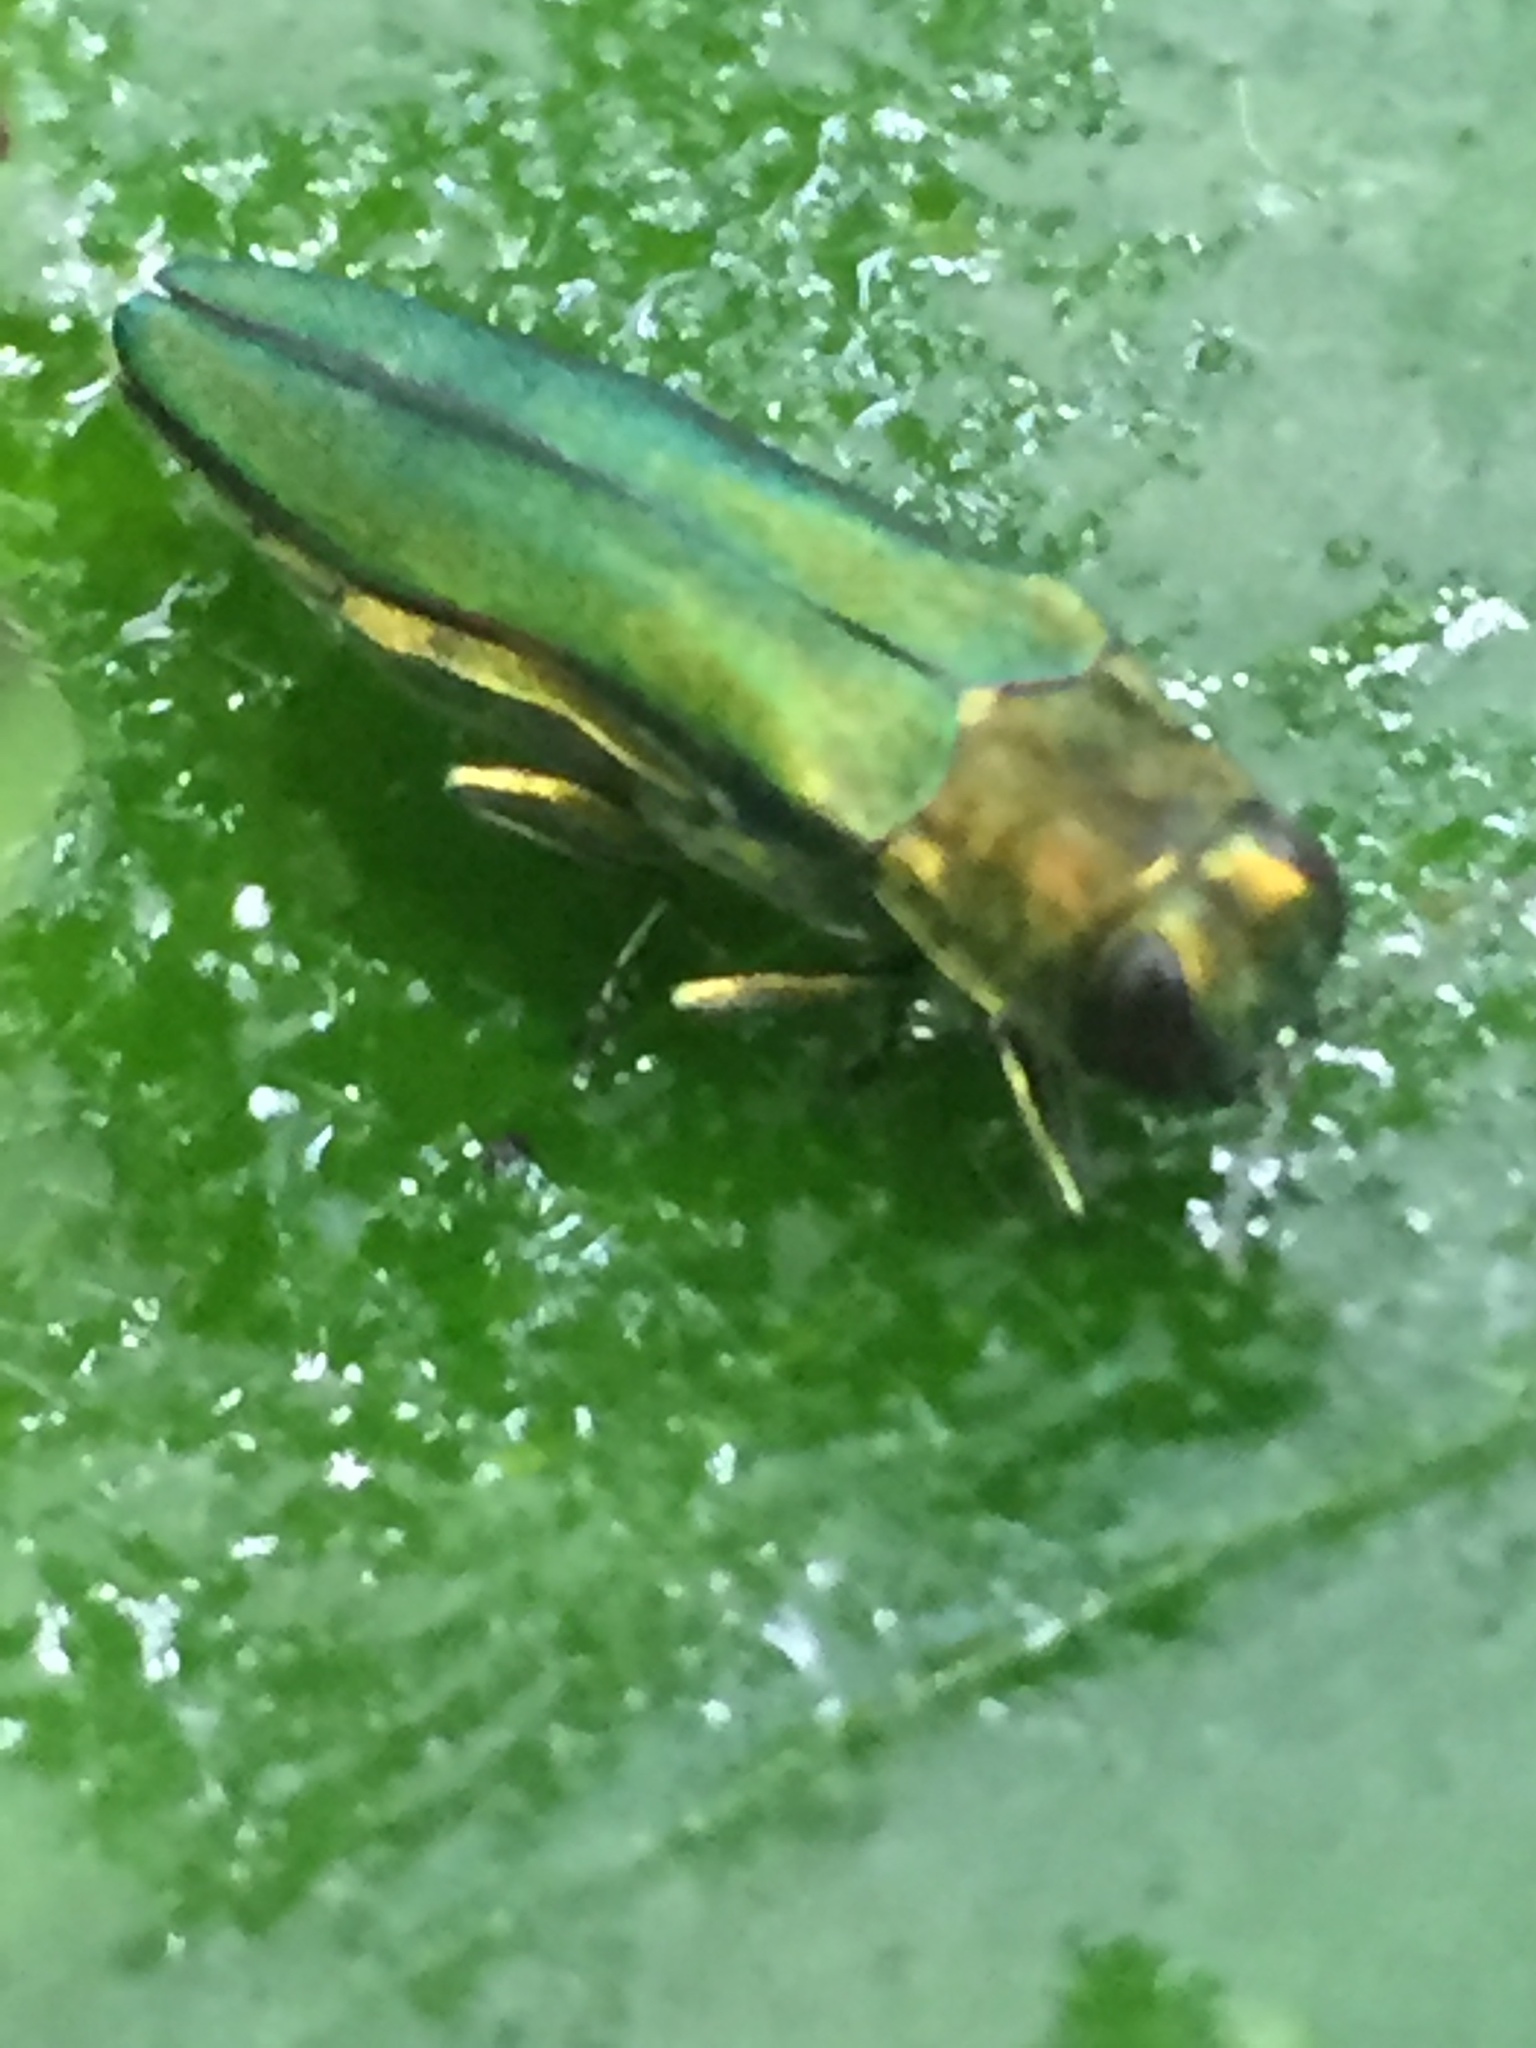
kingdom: Animalia
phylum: Arthropoda
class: Insecta
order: Coleoptera
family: Buprestidae
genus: Agrilus
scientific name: Agrilus planipennis
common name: Emerald ash borer
